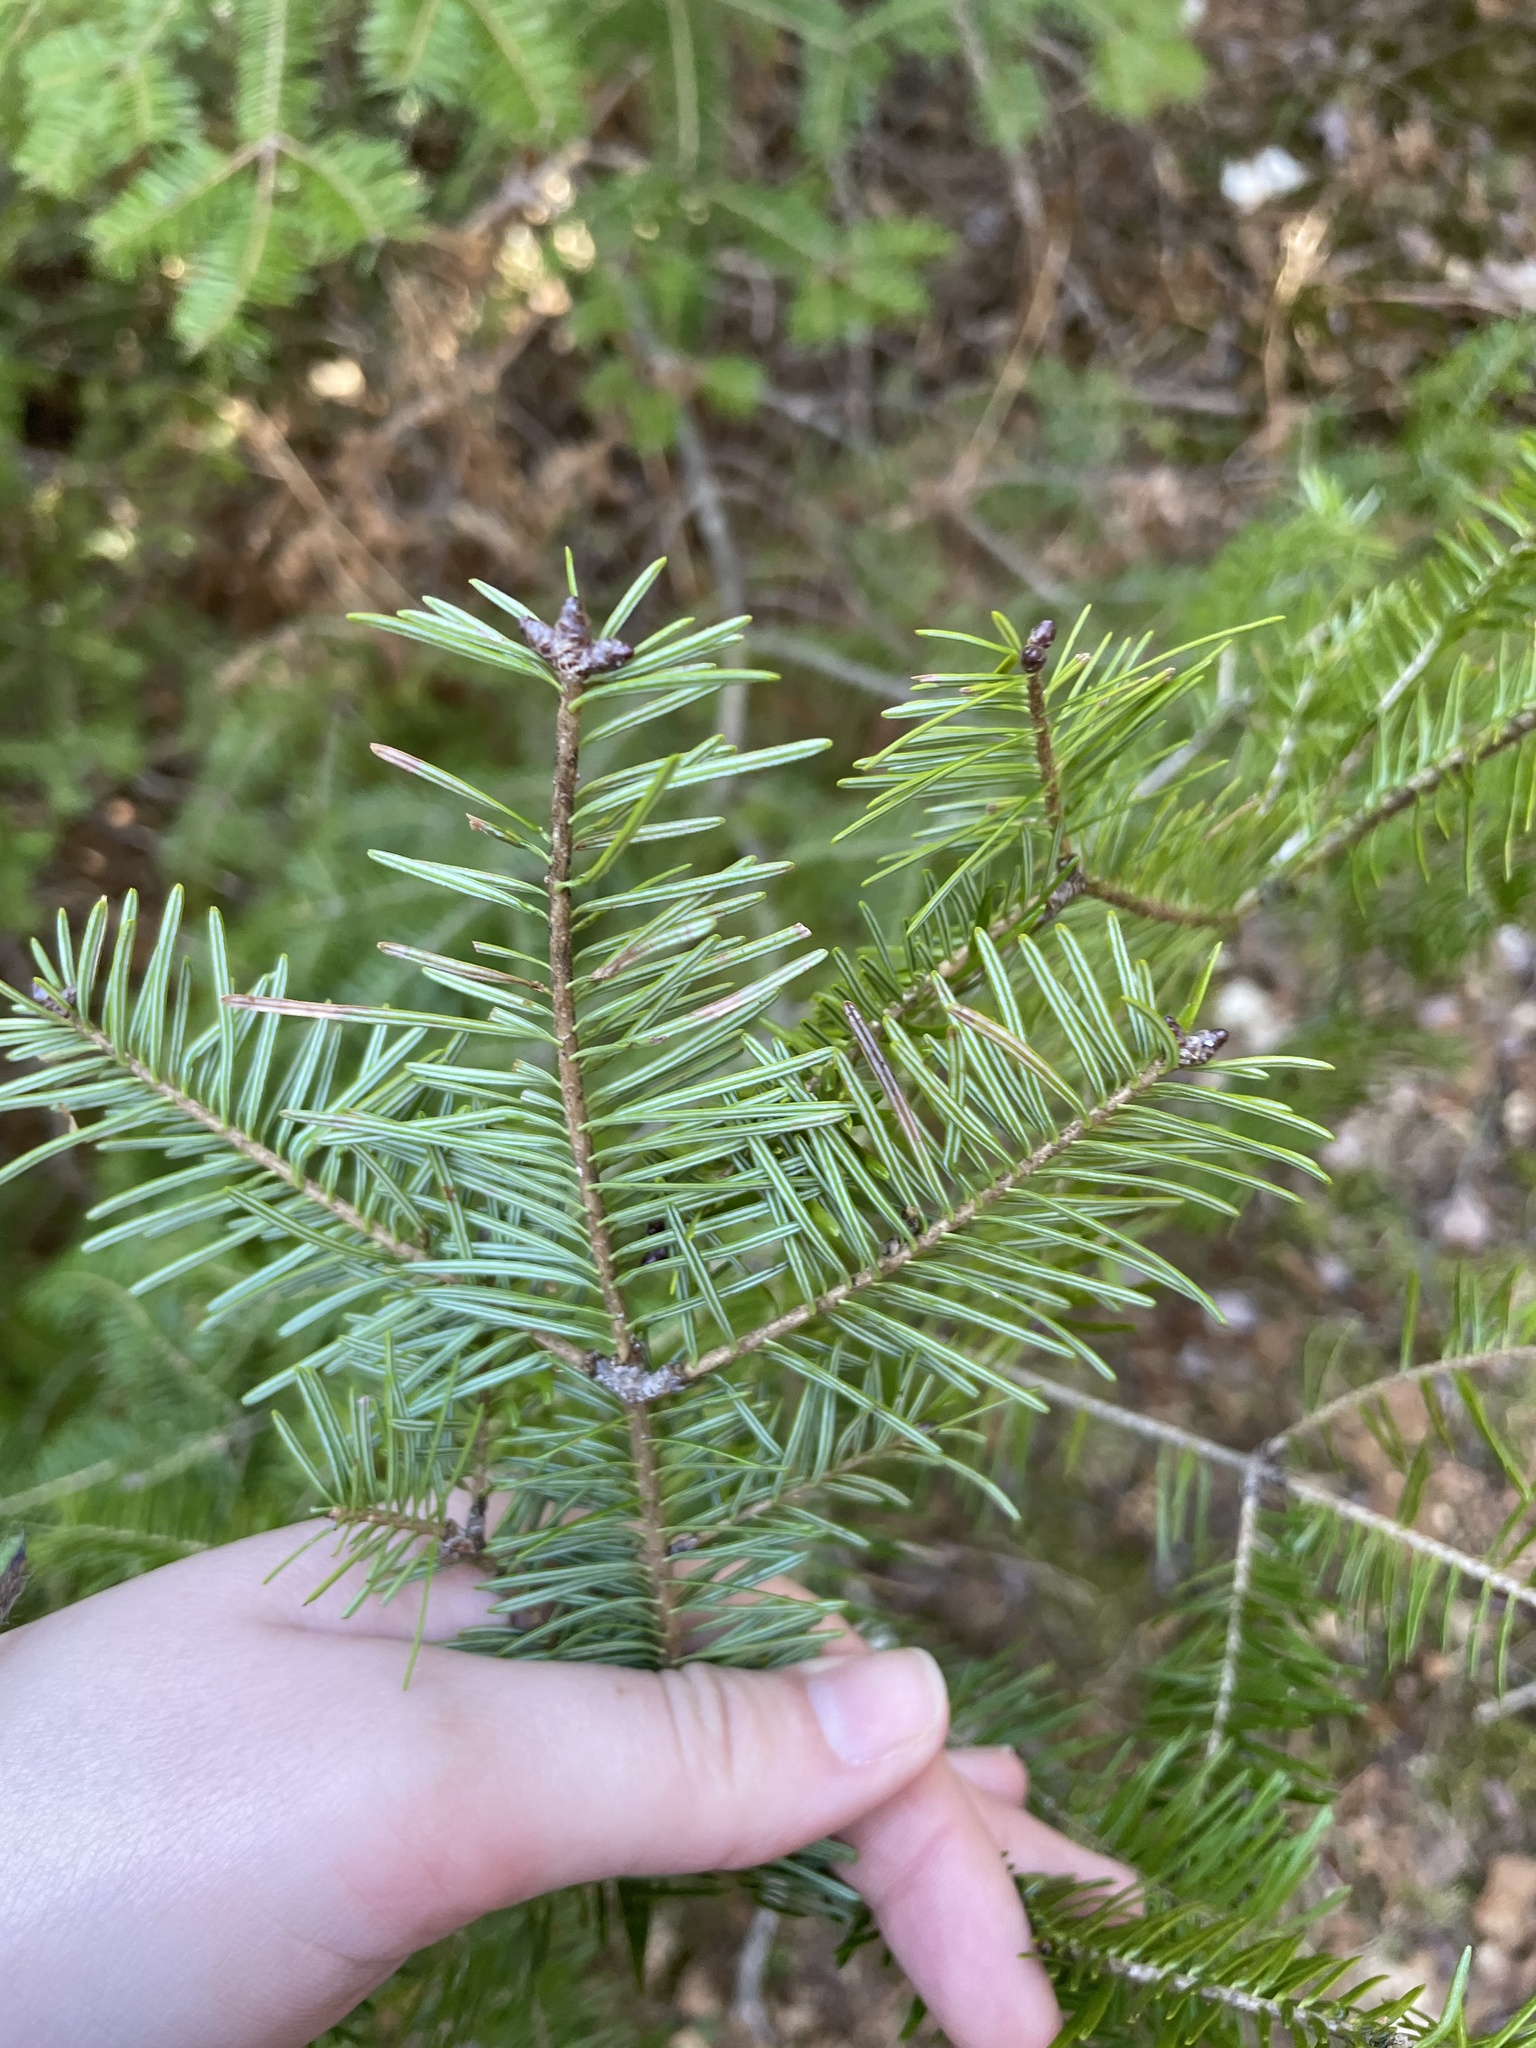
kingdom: Plantae
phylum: Tracheophyta
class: Pinopsida
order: Pinales
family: Pinaceae
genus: Abies
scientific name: Abies balsamea
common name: Balsam fir
